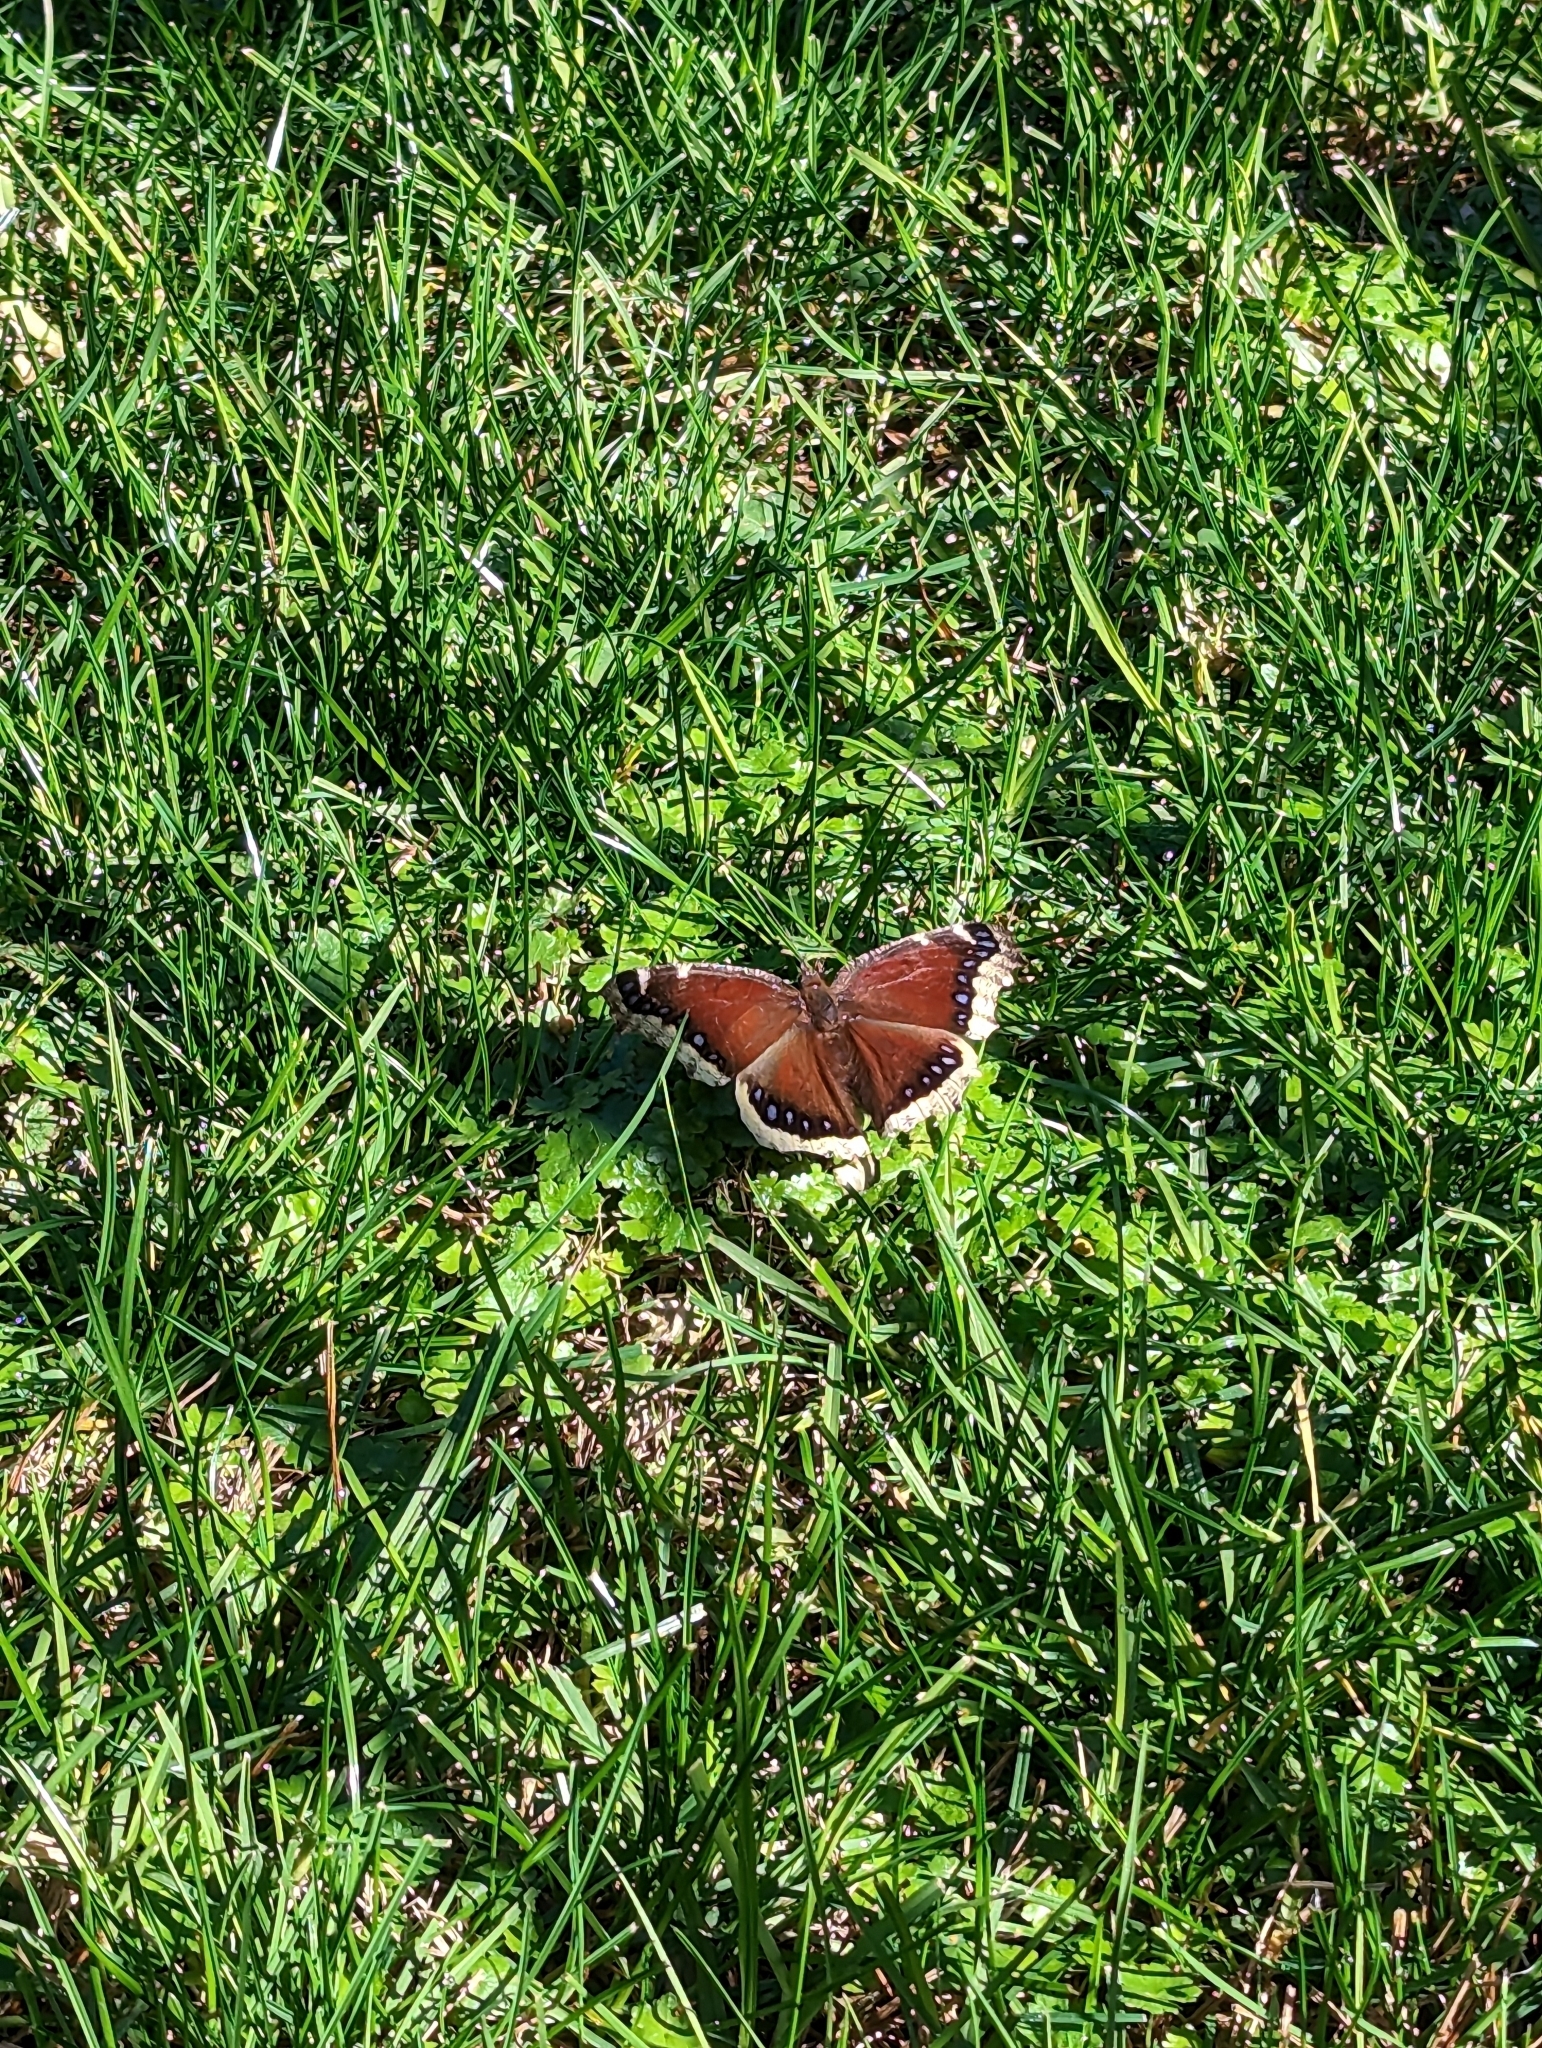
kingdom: Animalia
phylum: Arthropoda
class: Insecta
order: Lepidoptera
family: Nymphalidae
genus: Nymphalis
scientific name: Nymphalis antiopa
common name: Camberwell beauty
